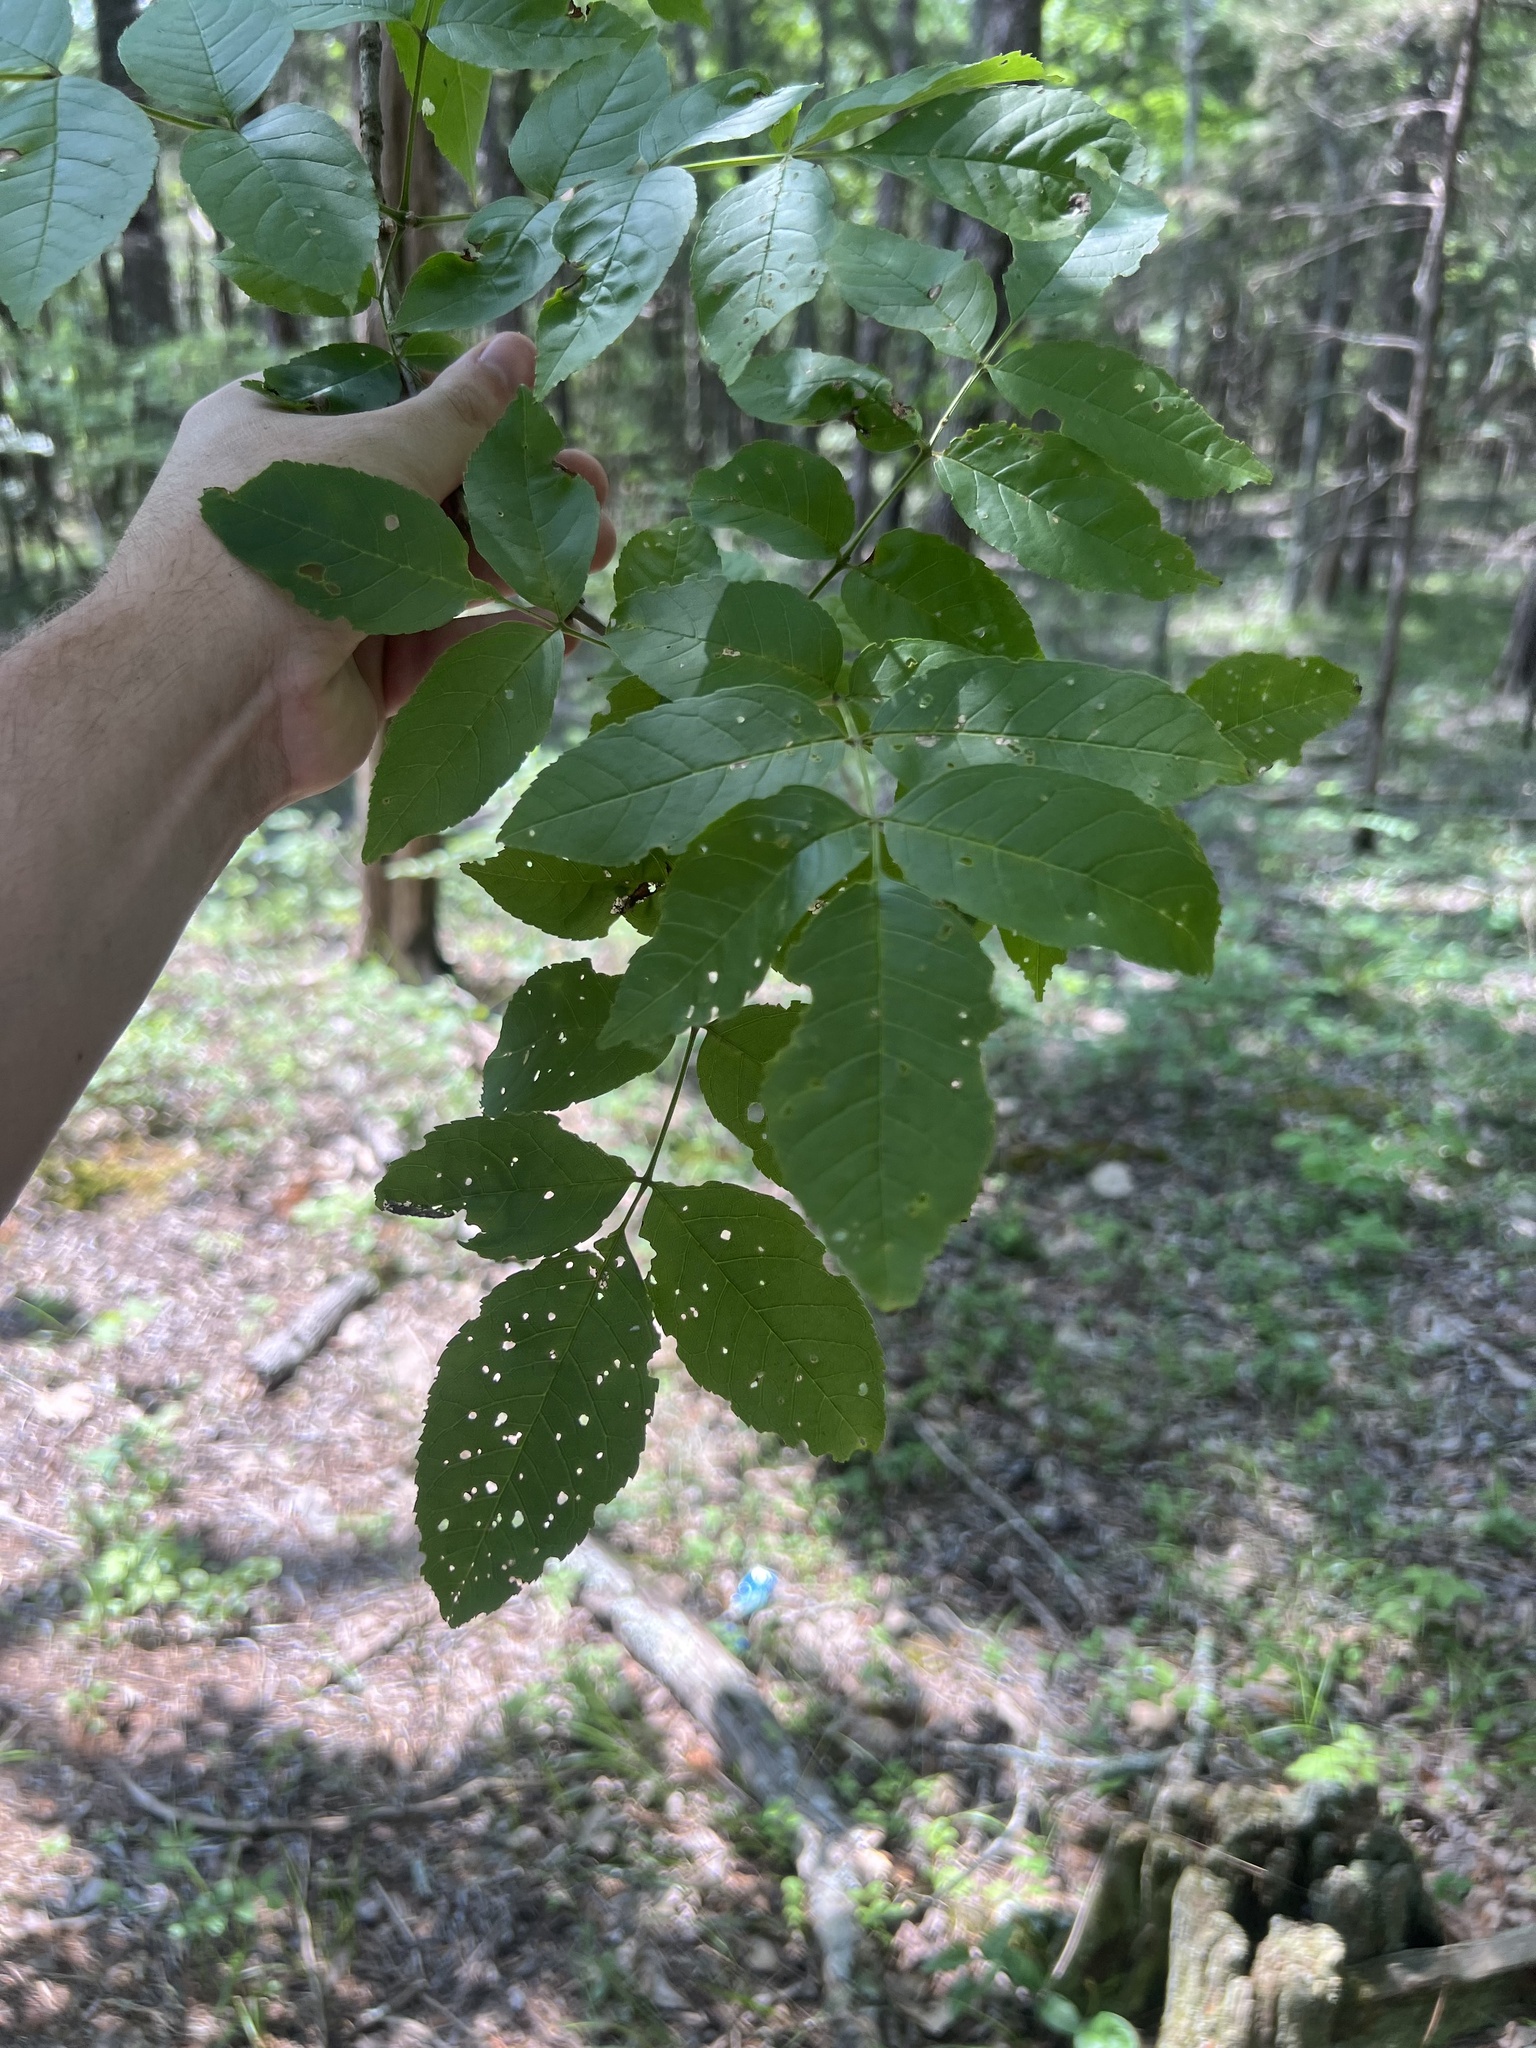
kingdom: Plantae
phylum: Tracheophyta
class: Magnoliopsida
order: Lamiales
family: Oleaceae
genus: Fraxinus
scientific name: Fraxinus quadrangulata
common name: Blue ash
